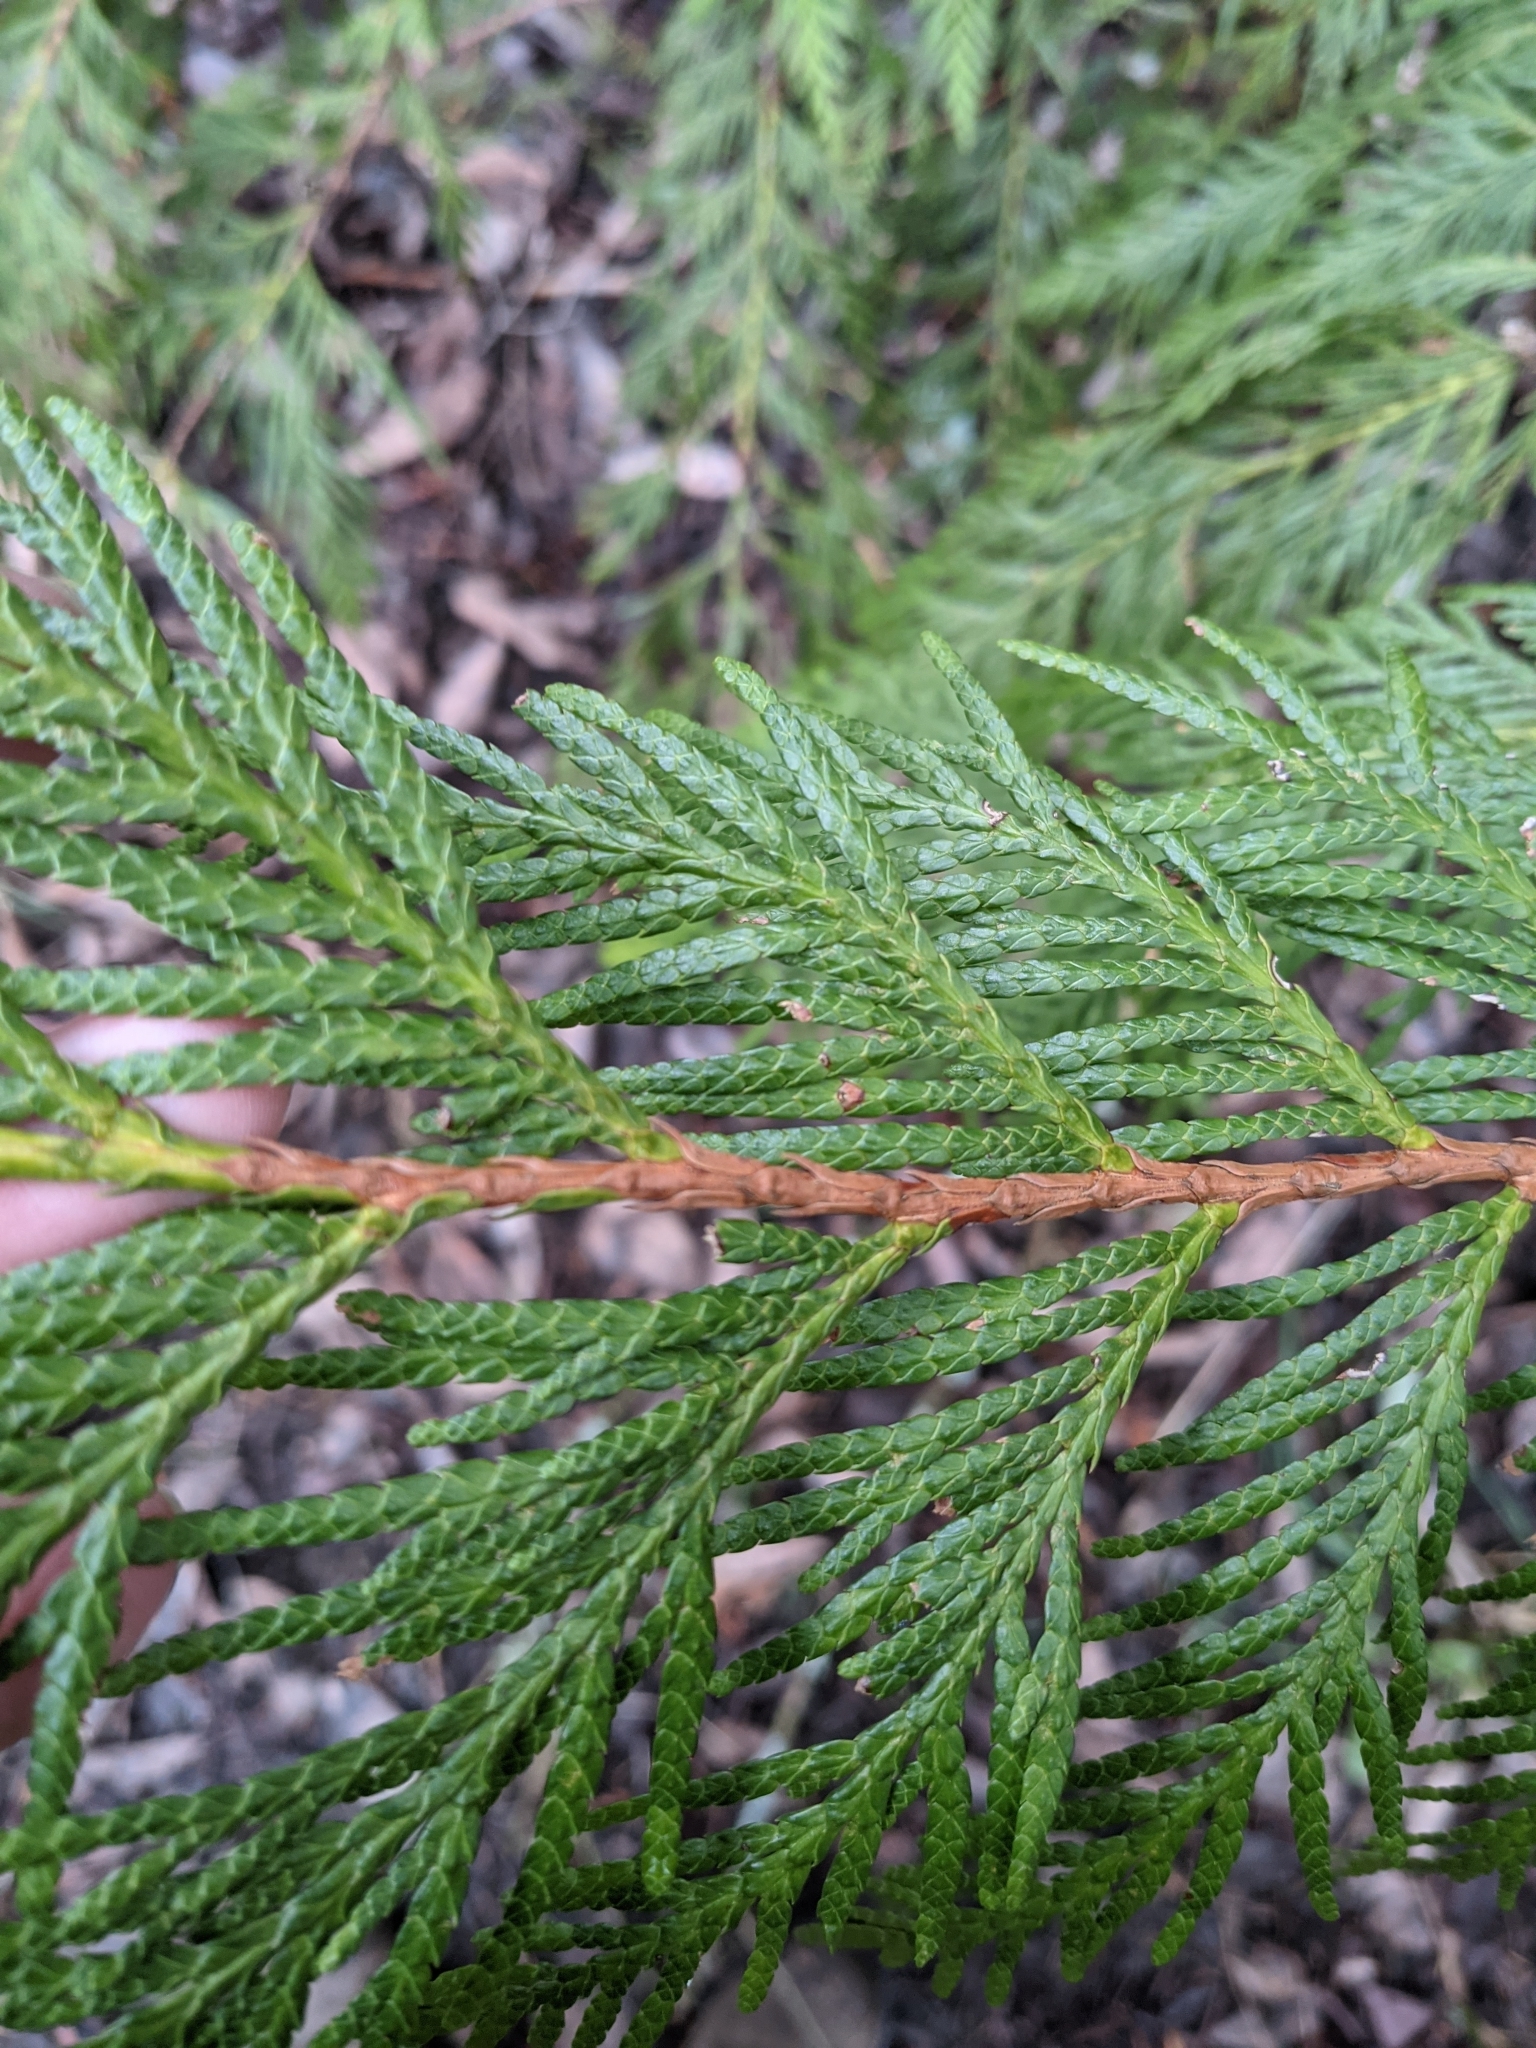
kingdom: Plantae
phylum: Tracheophyta
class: Pinopsida
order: Pinales
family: Cupressaceae
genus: Thuja
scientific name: Thuja plicata
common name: Western red-cedar
